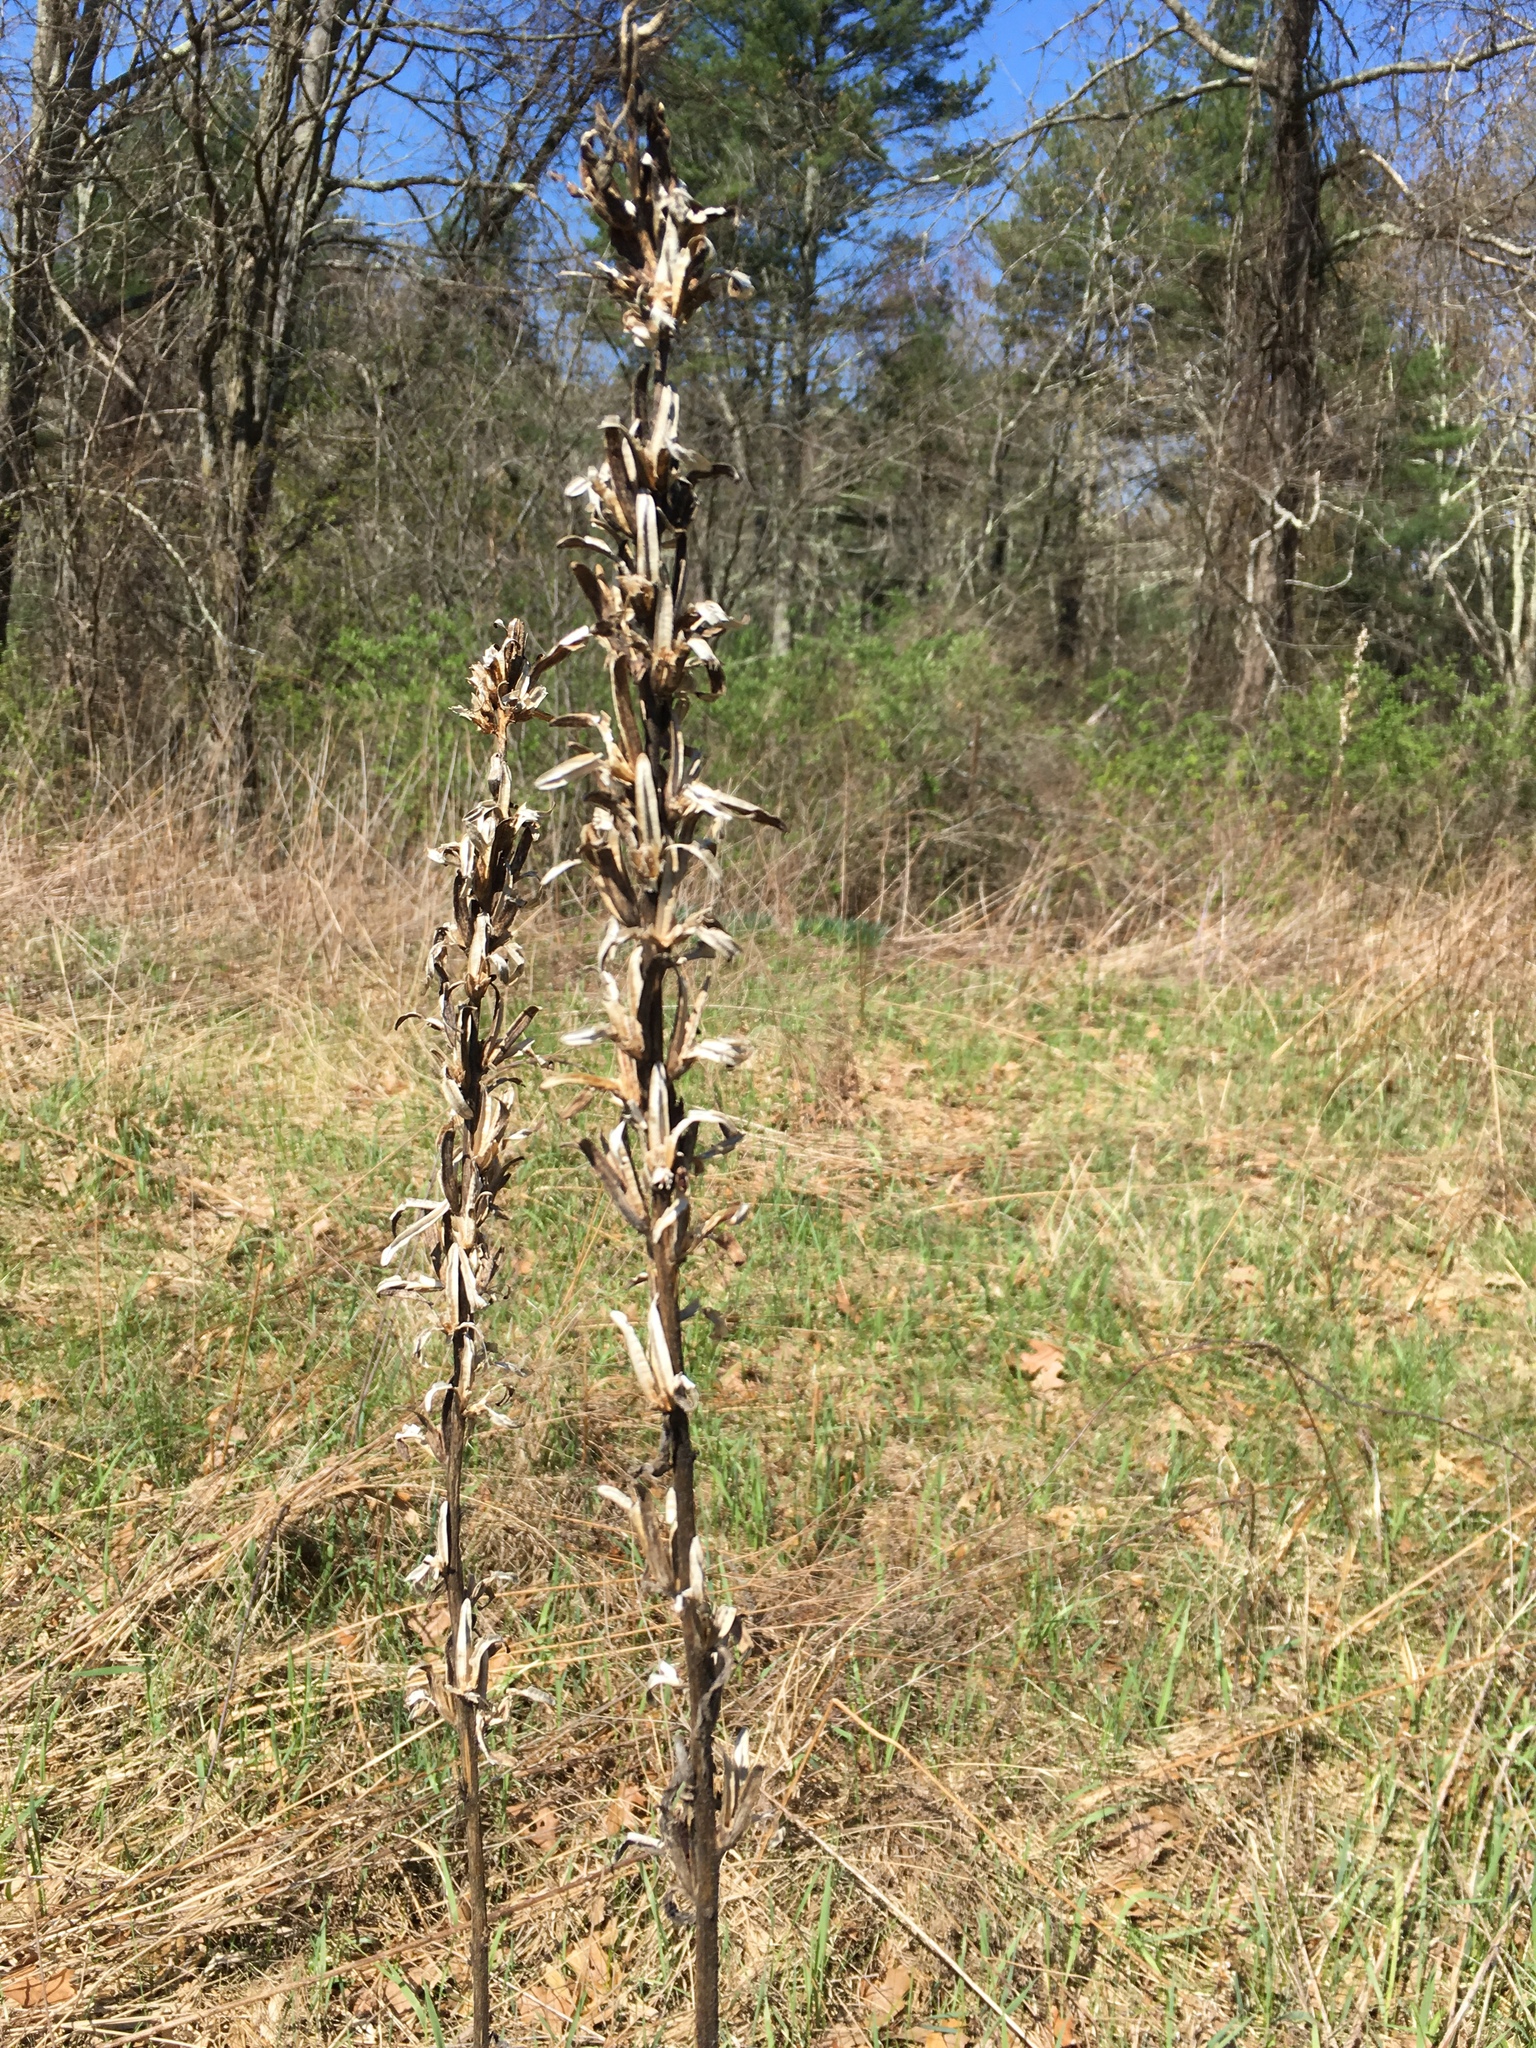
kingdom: Plantae
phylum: Tracheophyta
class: Magnoliopsida
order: Myrtales
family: Onagraceae
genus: Oenothera
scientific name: Oenothera biennis
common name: Common evening-primrose
